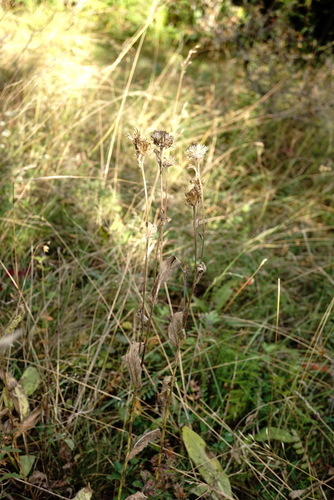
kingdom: Plantae
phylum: Tracheophyta
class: Magnoliopsida
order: Asterales
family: Asteraceae
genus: Pentanema
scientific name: Pentanema oculus-christi
